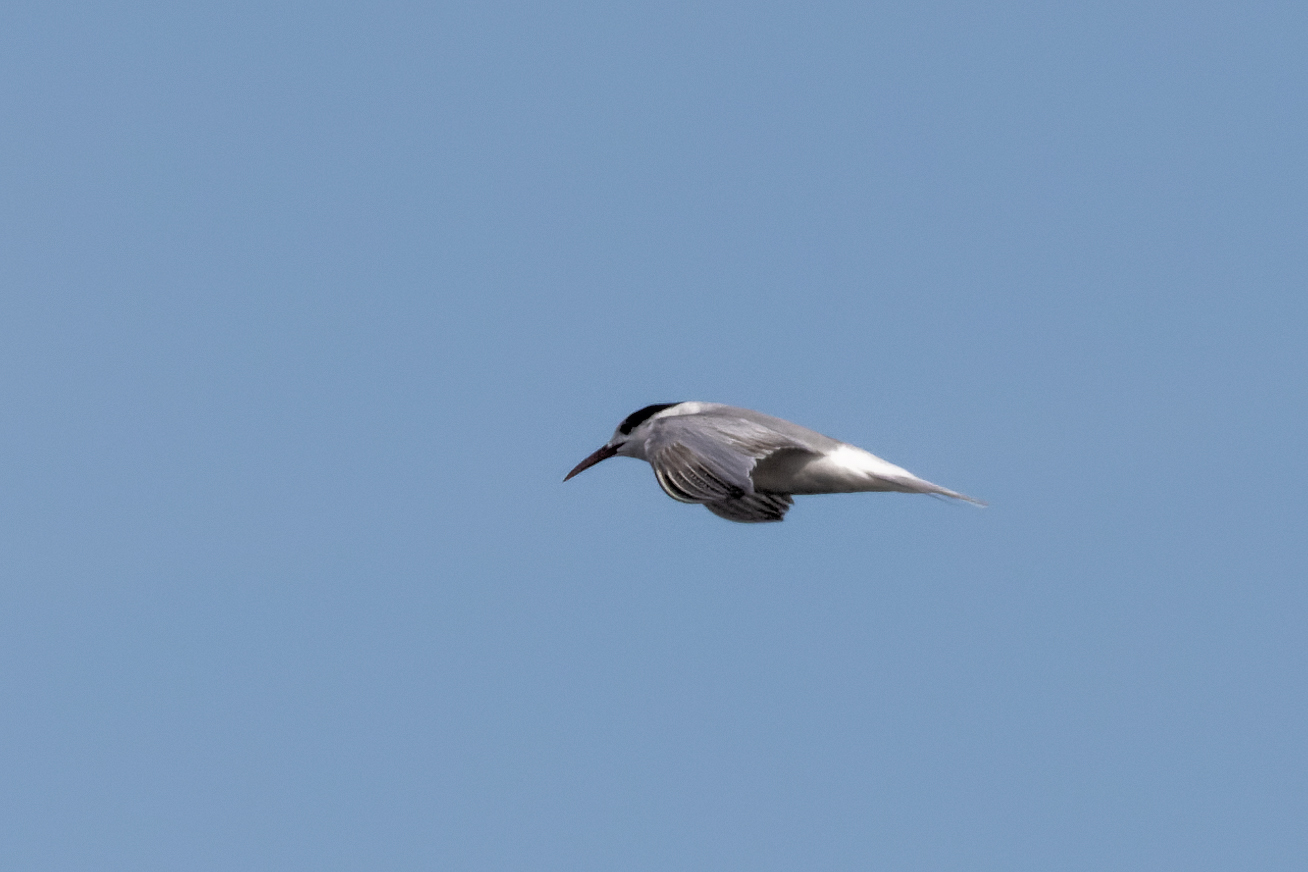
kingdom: Animalia
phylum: Chordata
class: Aves
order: Charadriiformes
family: Laridae
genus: Sterna
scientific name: Sterna hirundo
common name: Common tern
